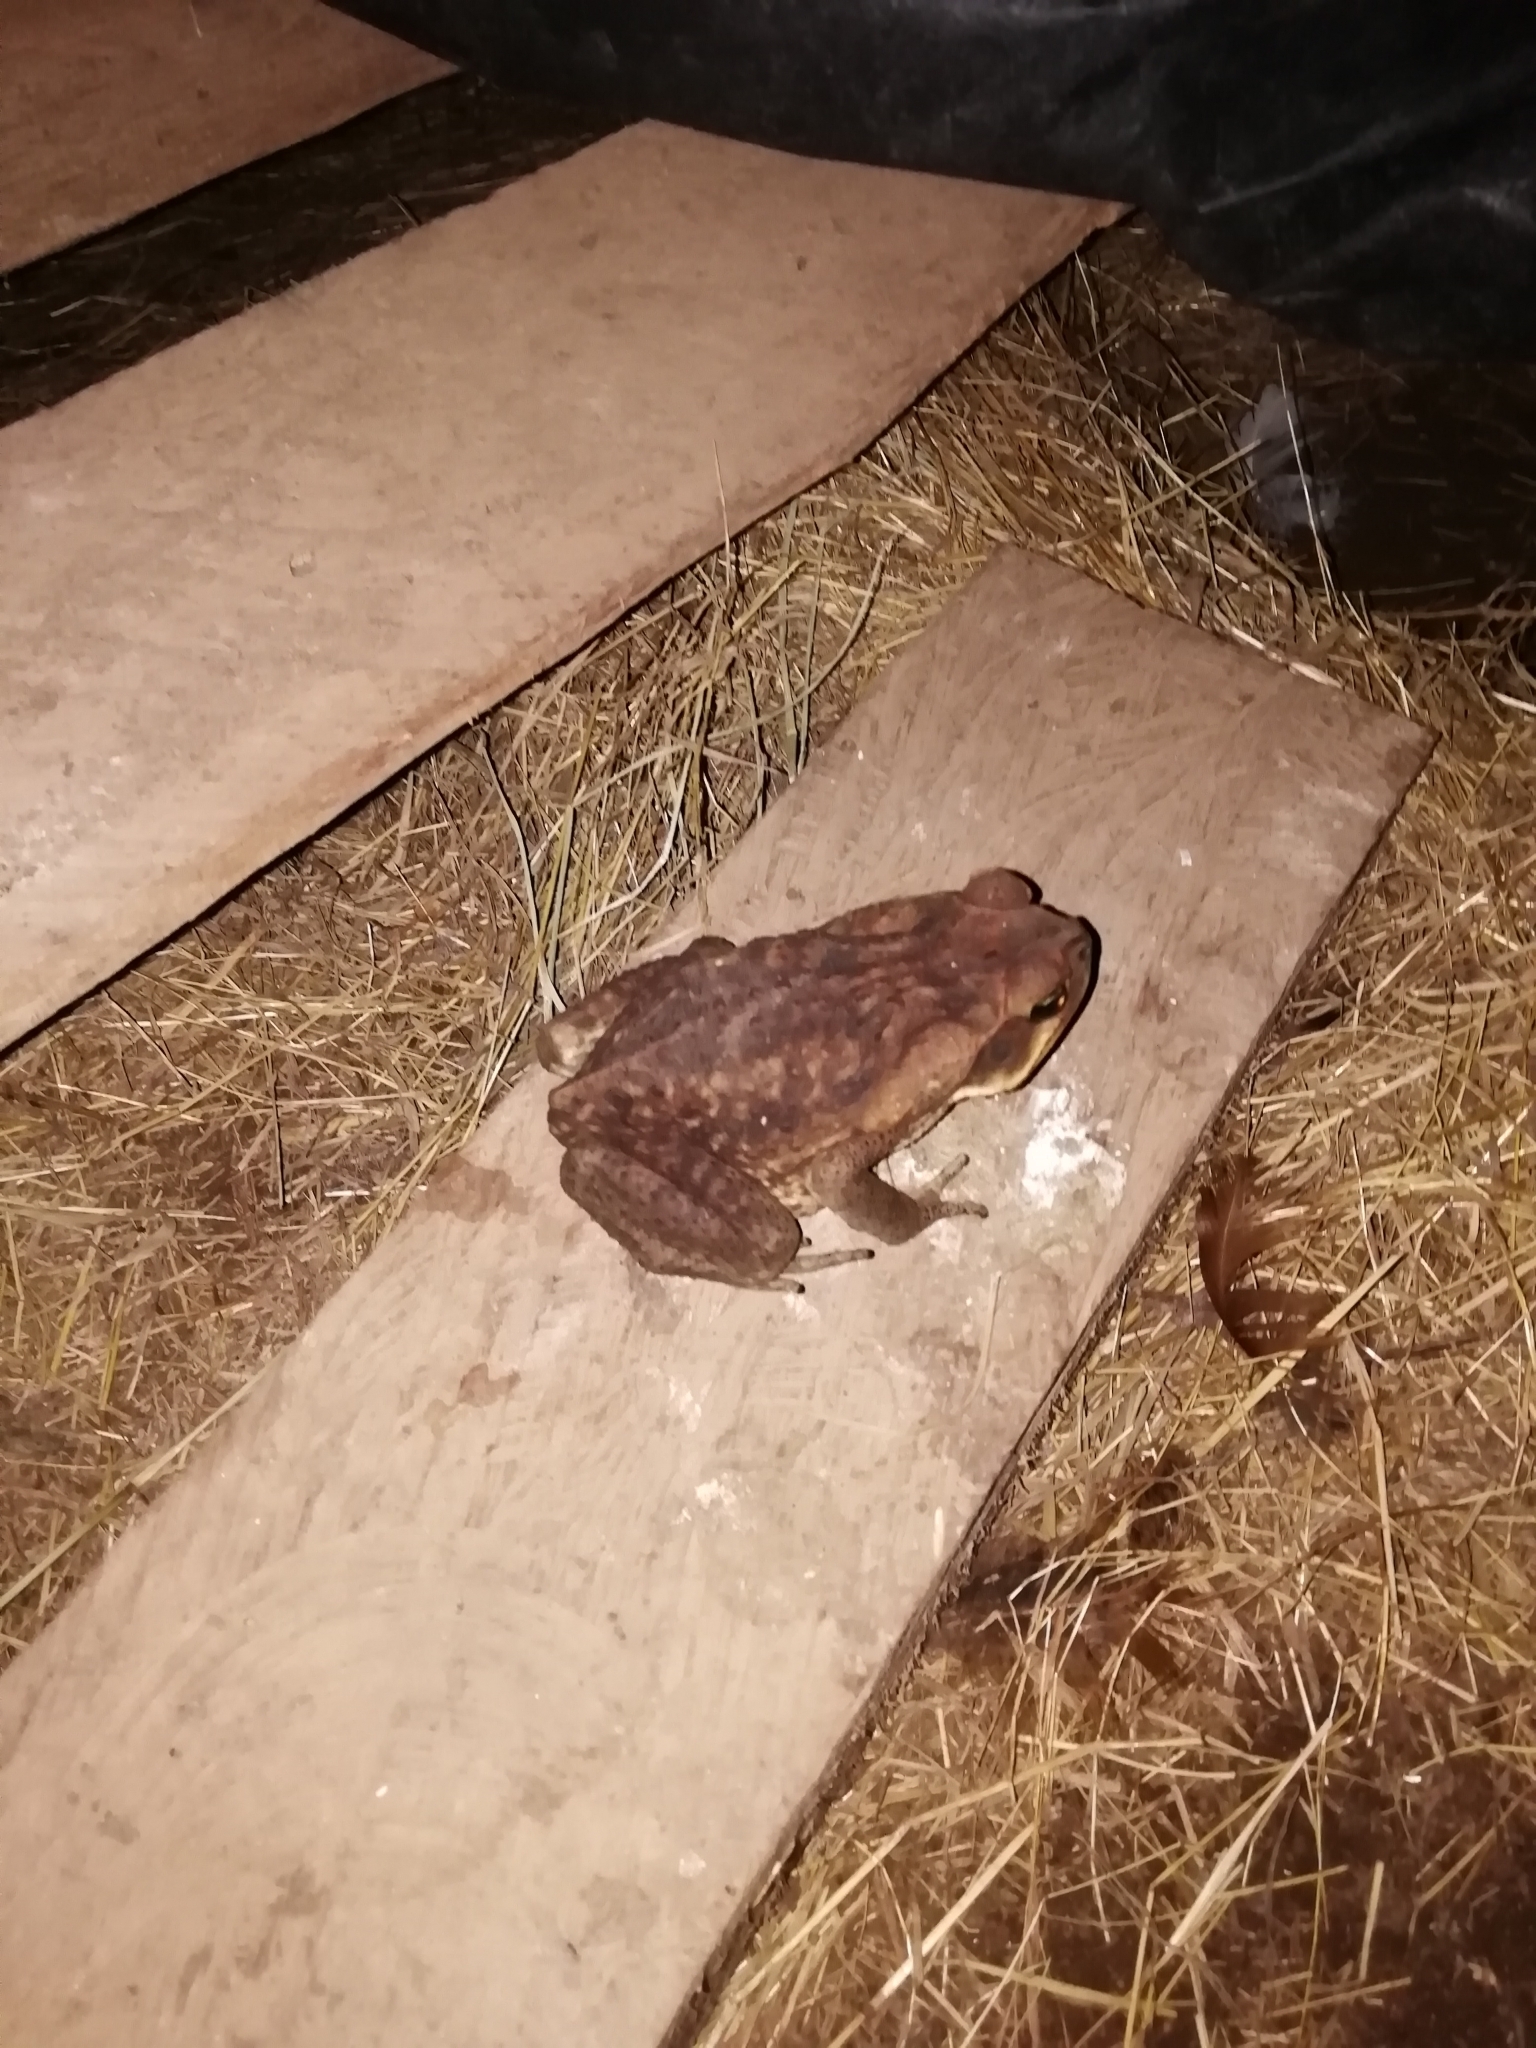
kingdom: Animalia
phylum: Chordata
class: Amphibia
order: Anura
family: Bufonidae
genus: Rhinella
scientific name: Rhinella horribilis
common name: Mesoamerican cane toad
